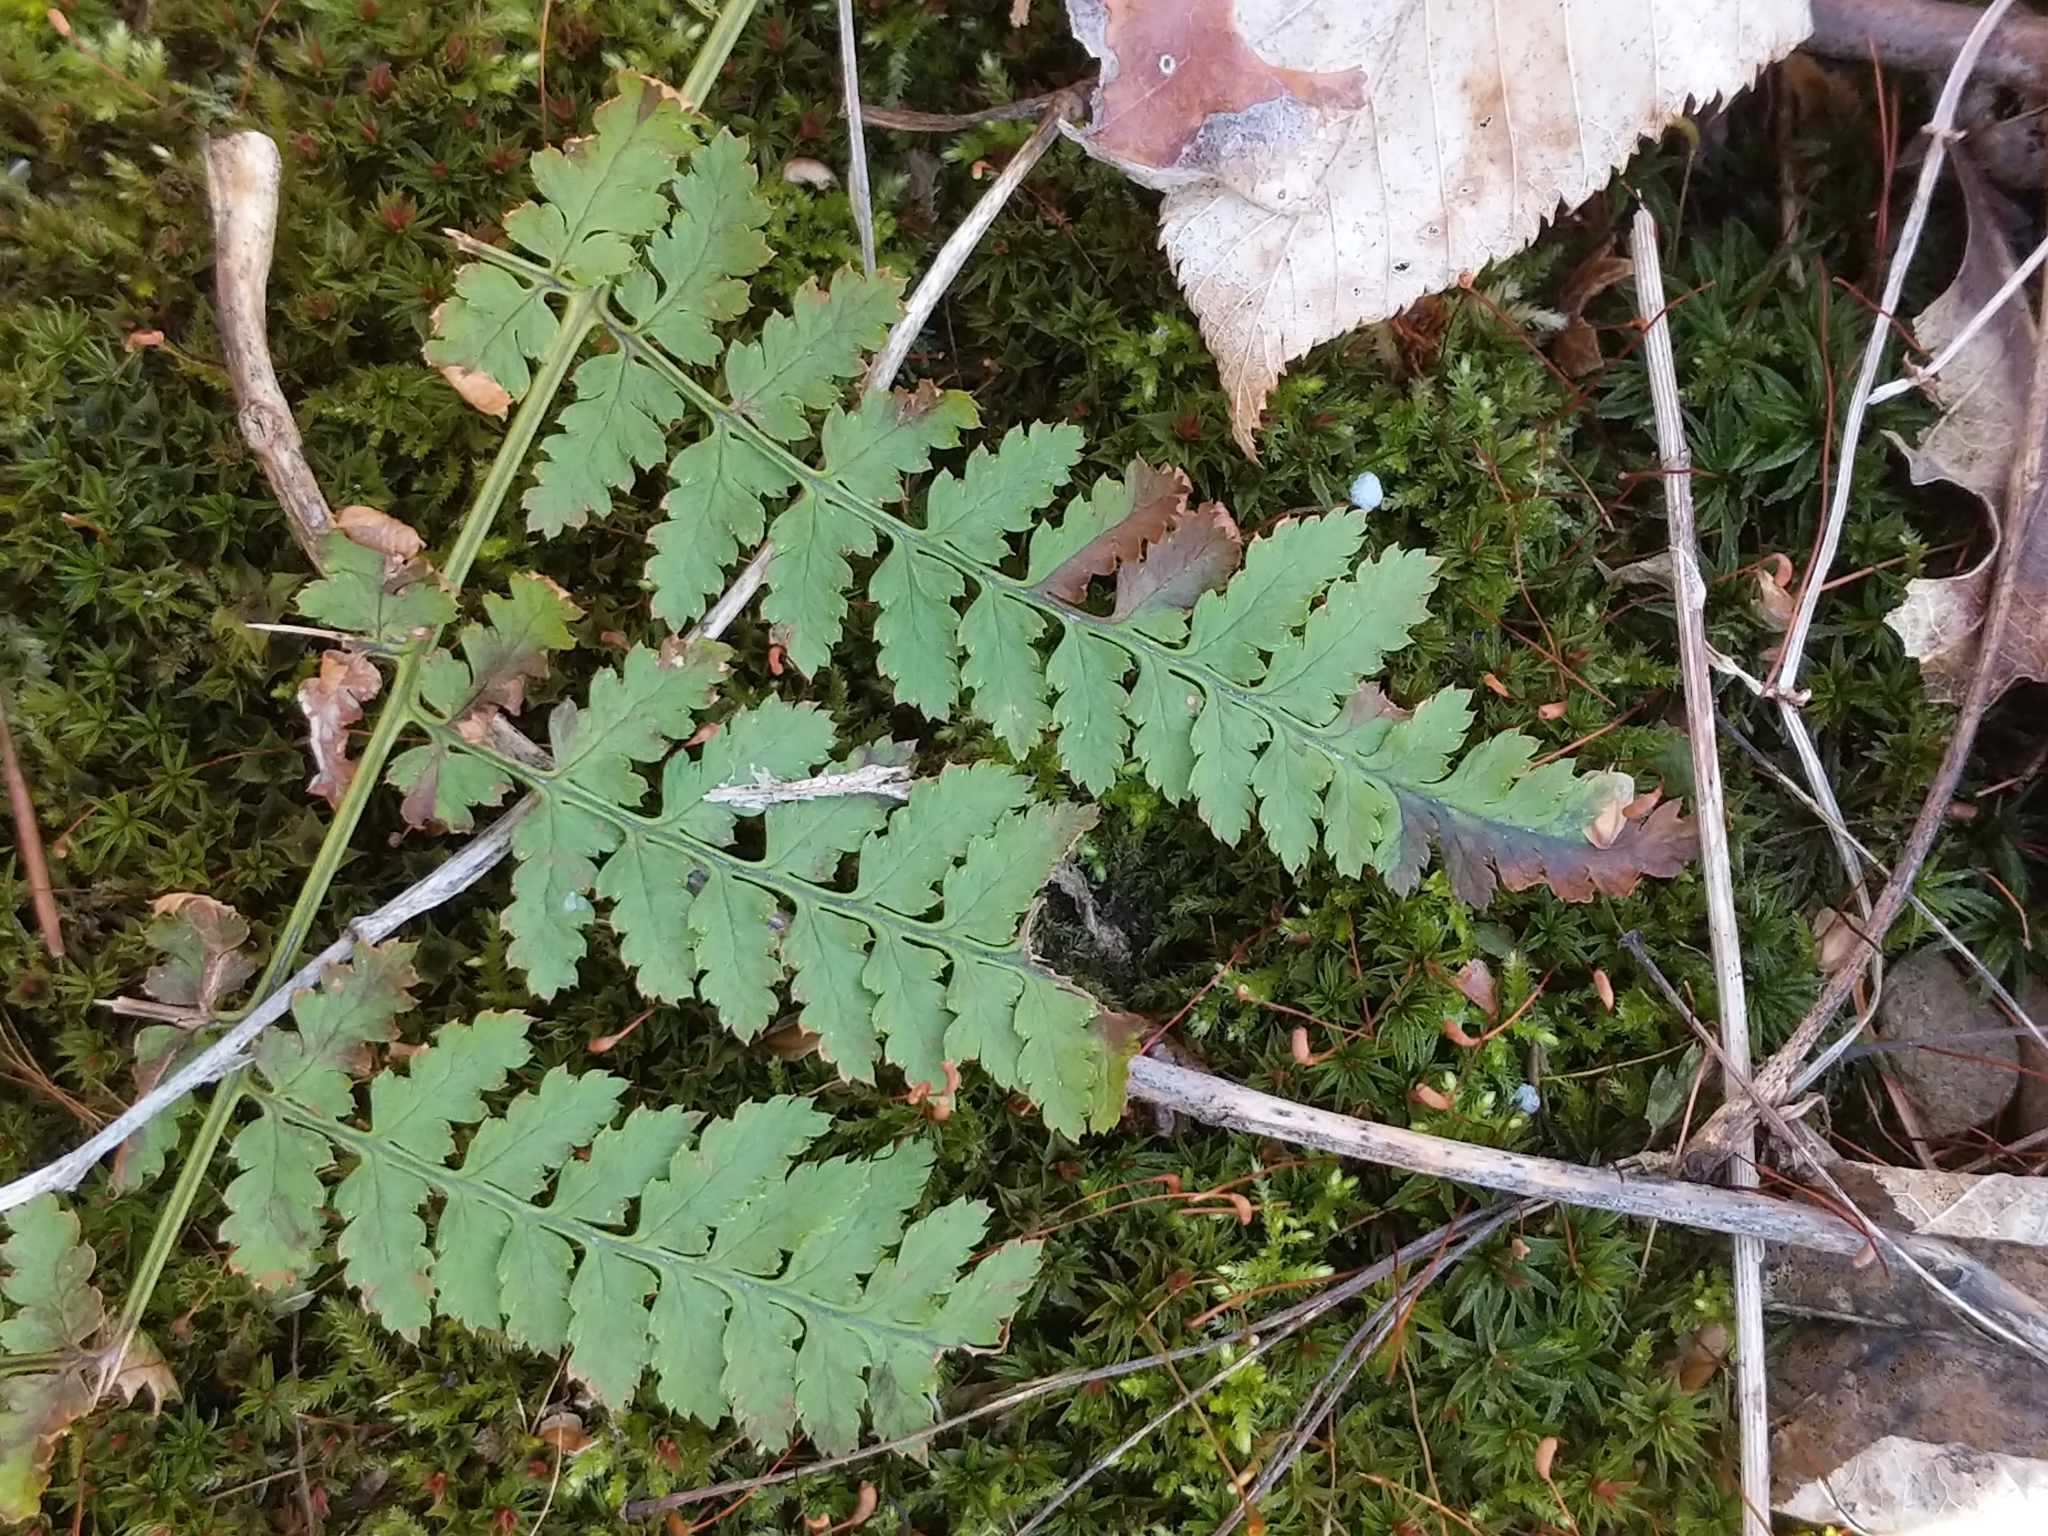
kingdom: Plantae
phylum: Tracheophyta
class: Polypodiopsida
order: Polypodiales
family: Dryopteridaceae
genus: Dryopteris
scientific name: Dryopteris intermedia
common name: Evergreen wood fern
